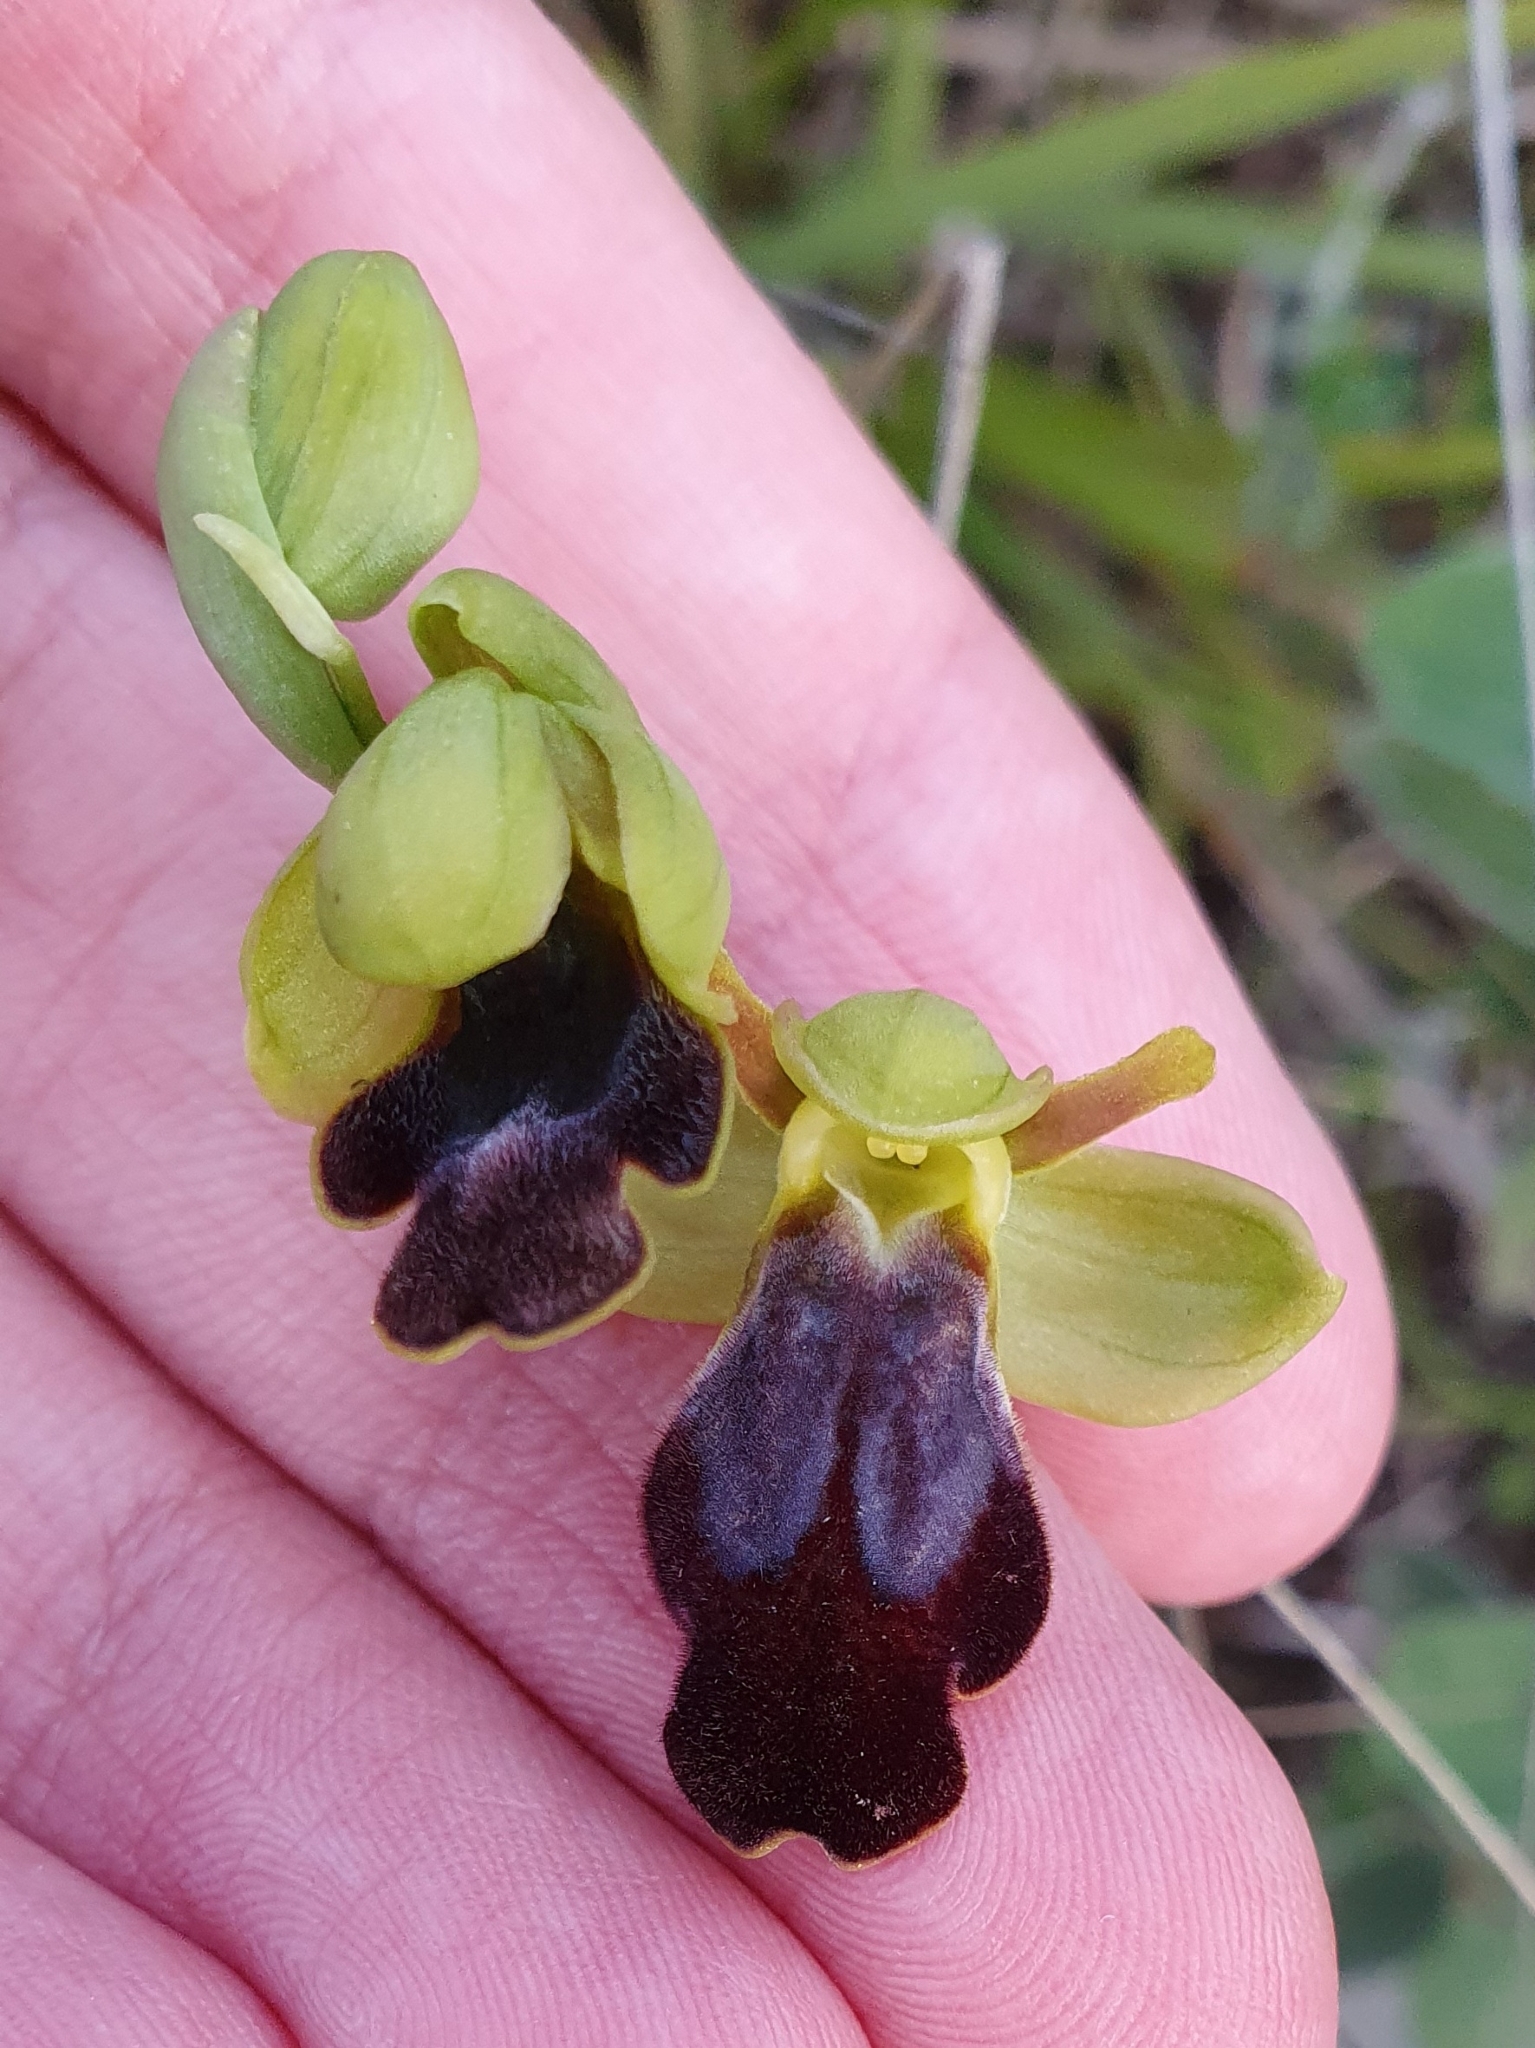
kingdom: Plantae
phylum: Tracheophyta
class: Liliopsida
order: Asparagales
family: Orchidaceae
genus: Ophrys
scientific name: Ophrys fusca
